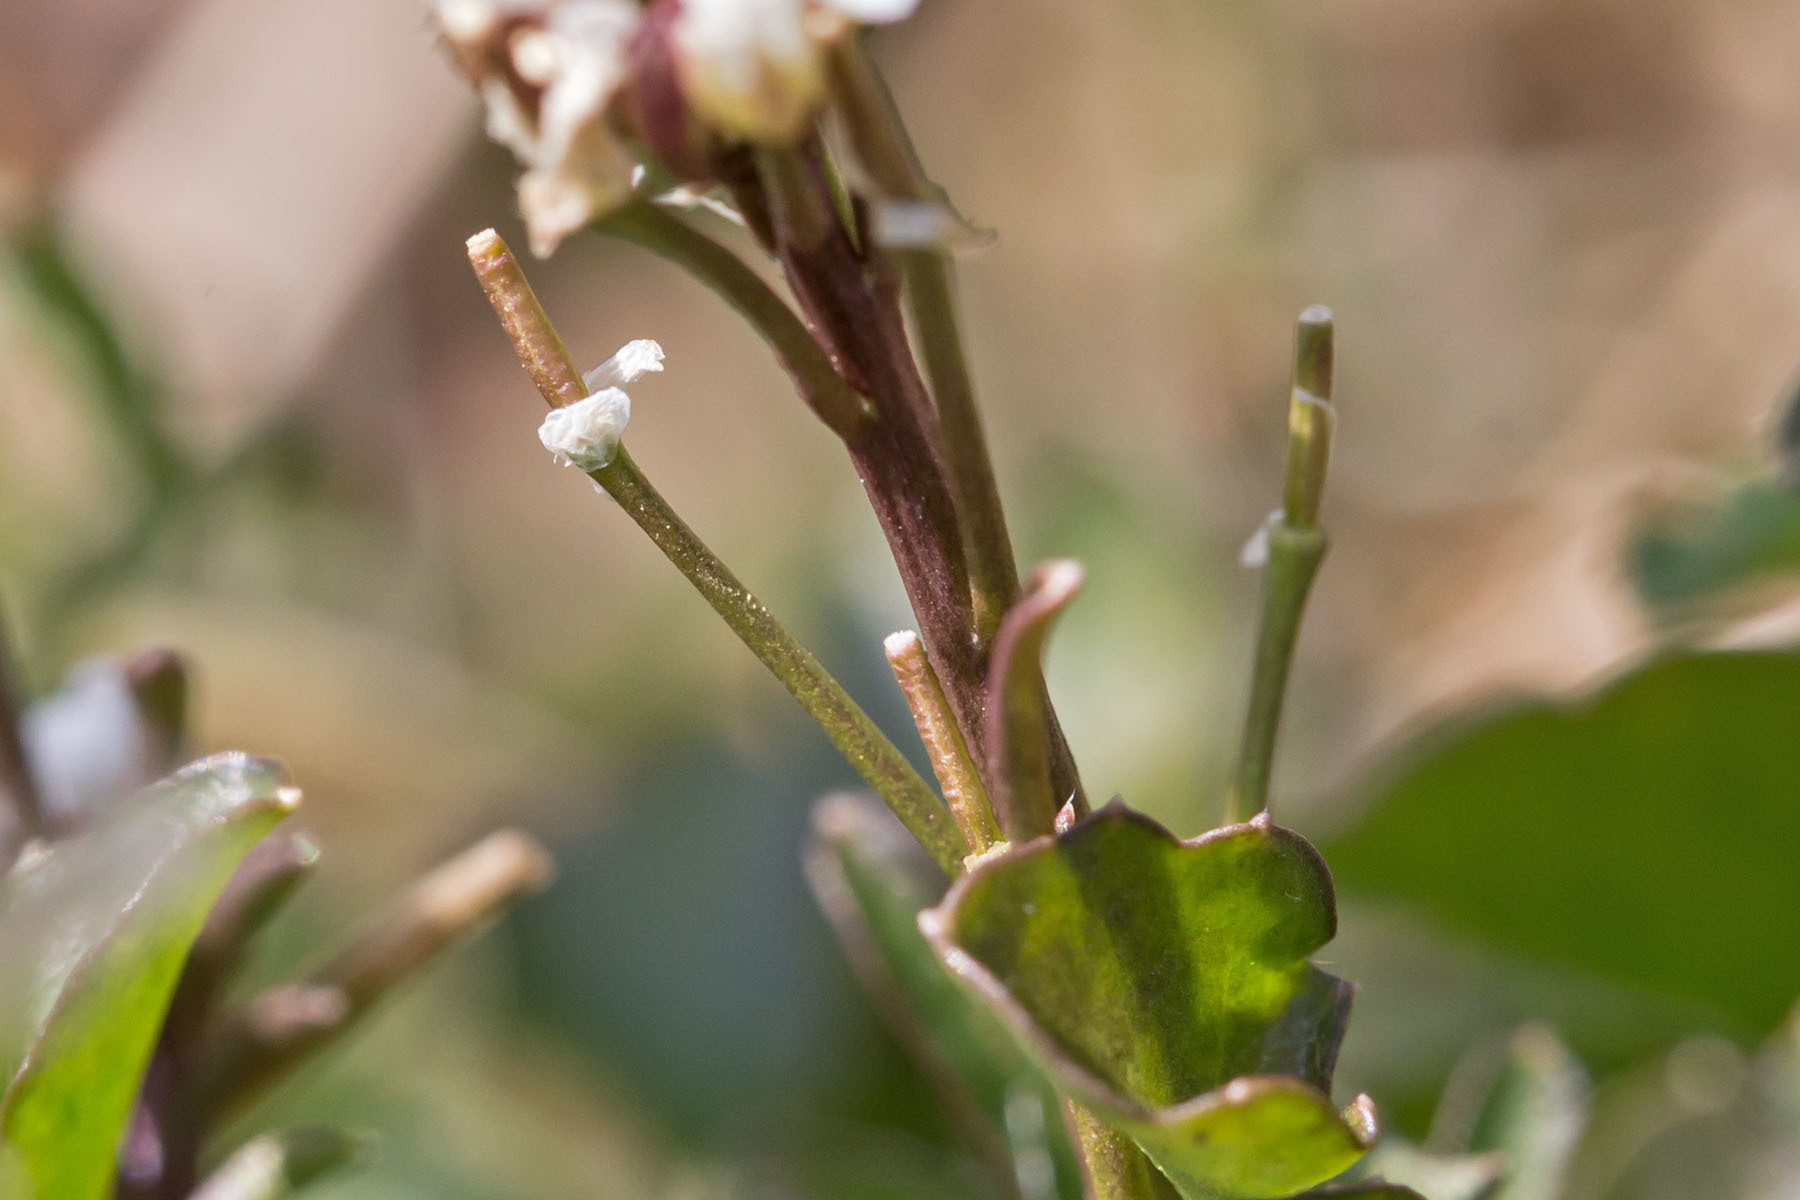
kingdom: Plantae
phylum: Tracheophyta
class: Magnoliopsida
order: Brassicales
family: Brassicaceae
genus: Cardamine
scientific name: Cardamine hirsuta
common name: Hairy bittercress
